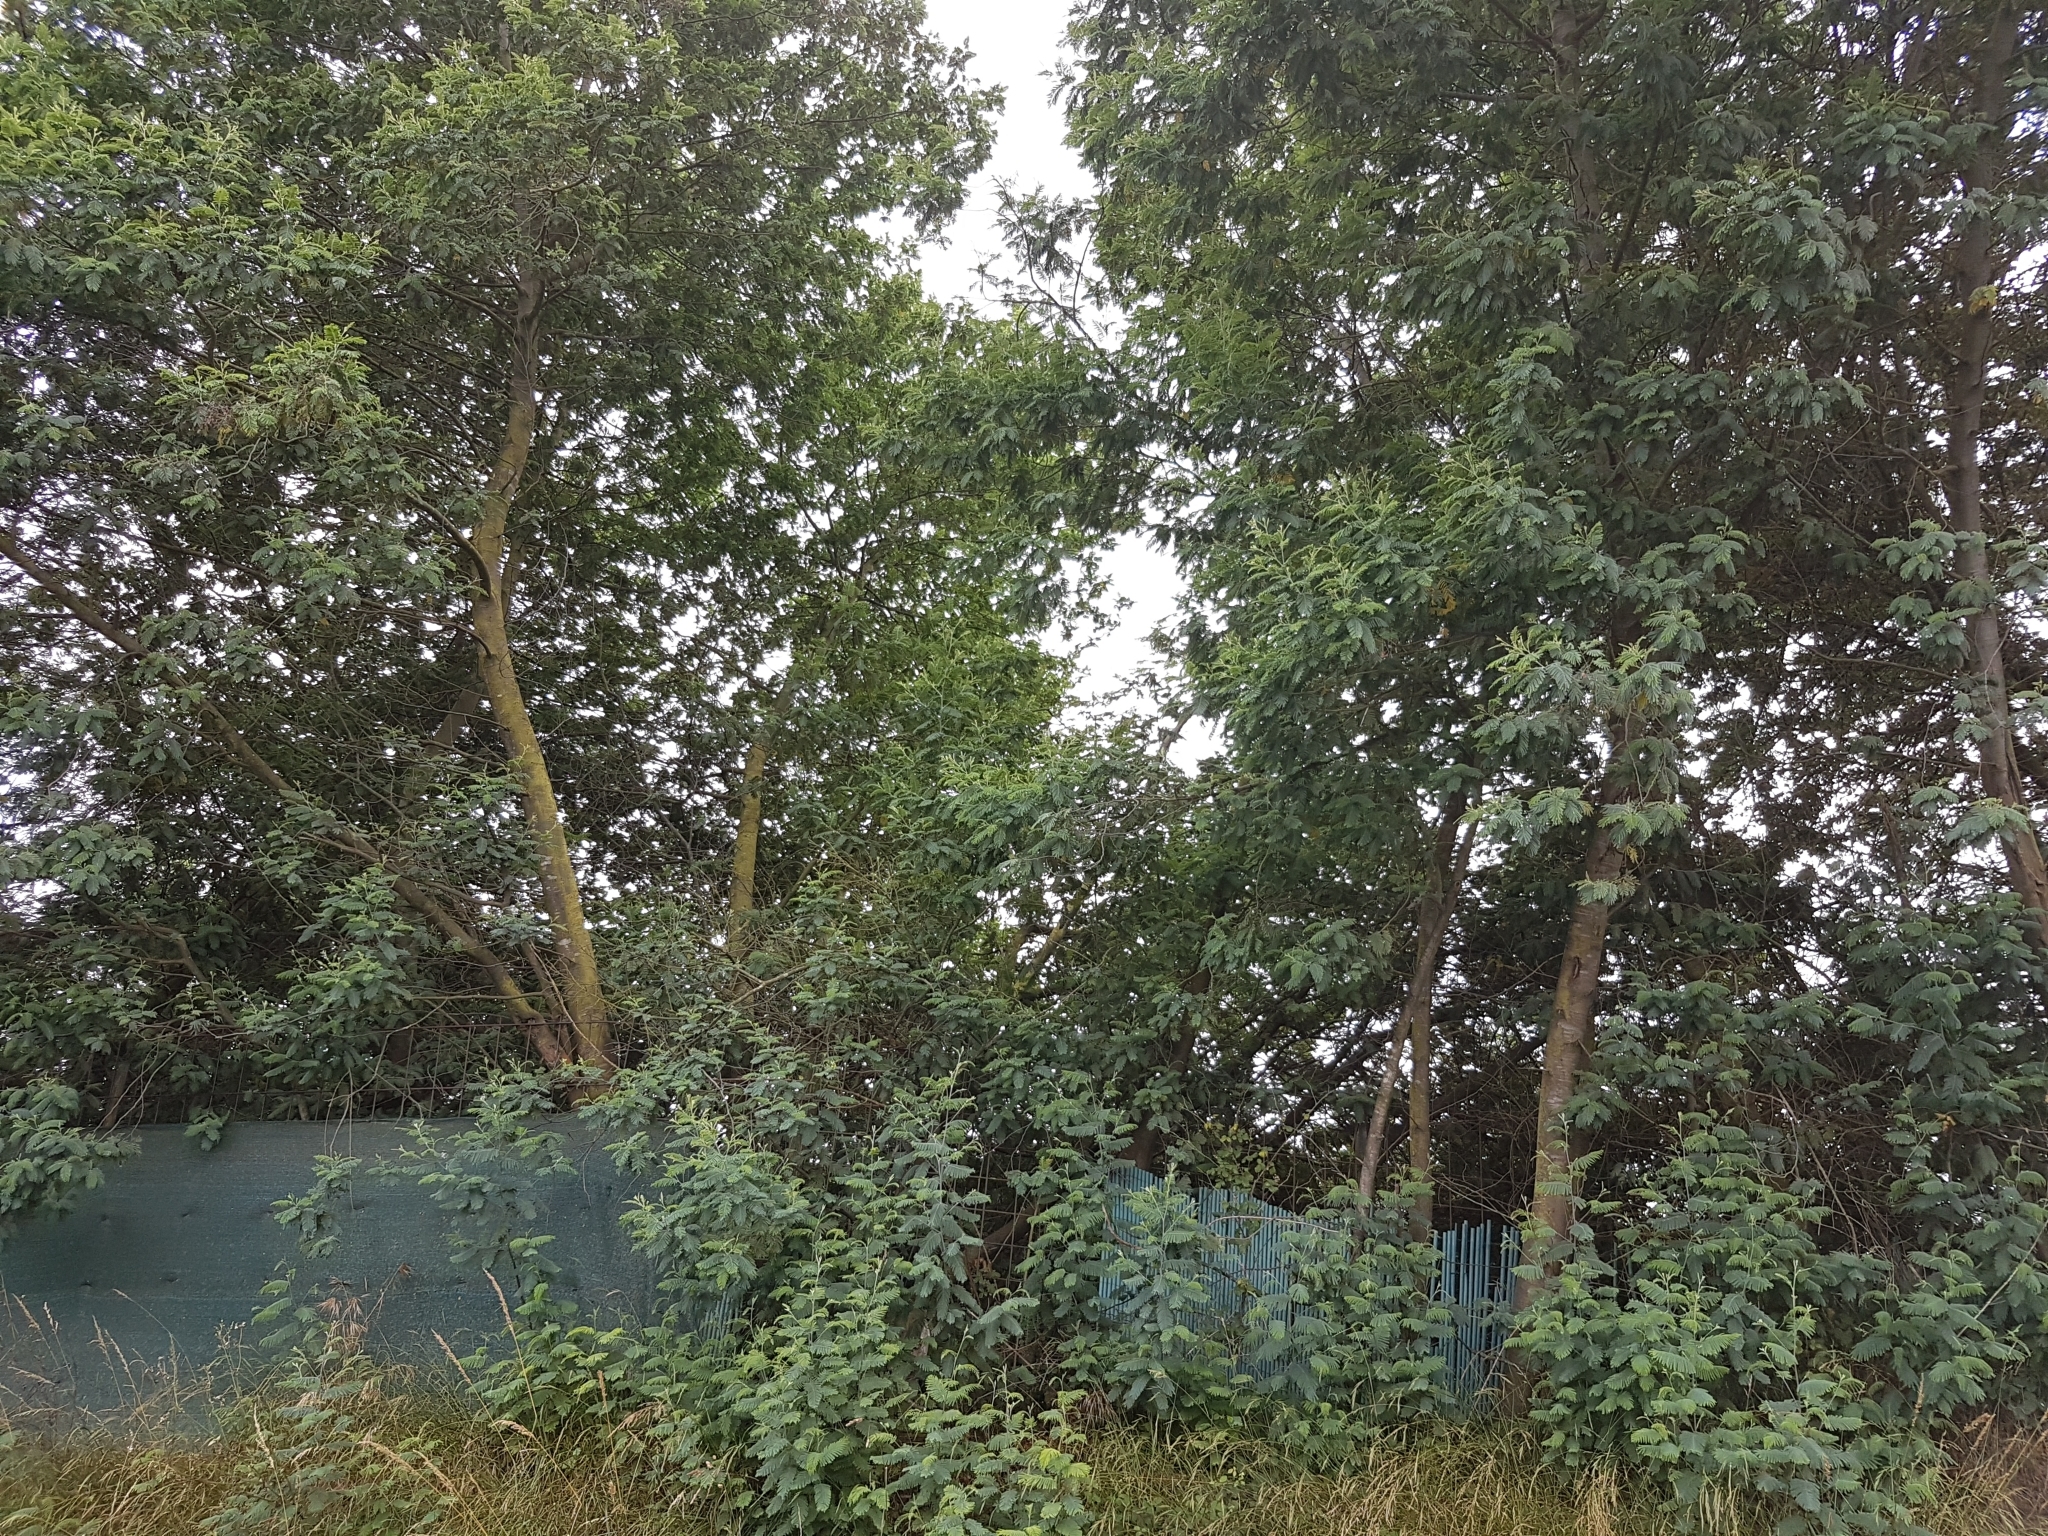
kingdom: Plantae
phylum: Tracheophyta
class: Magnoliopsida
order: Fabales
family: Fabaceae
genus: Acacia
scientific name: Acacia dealbata
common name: Silver wattle
